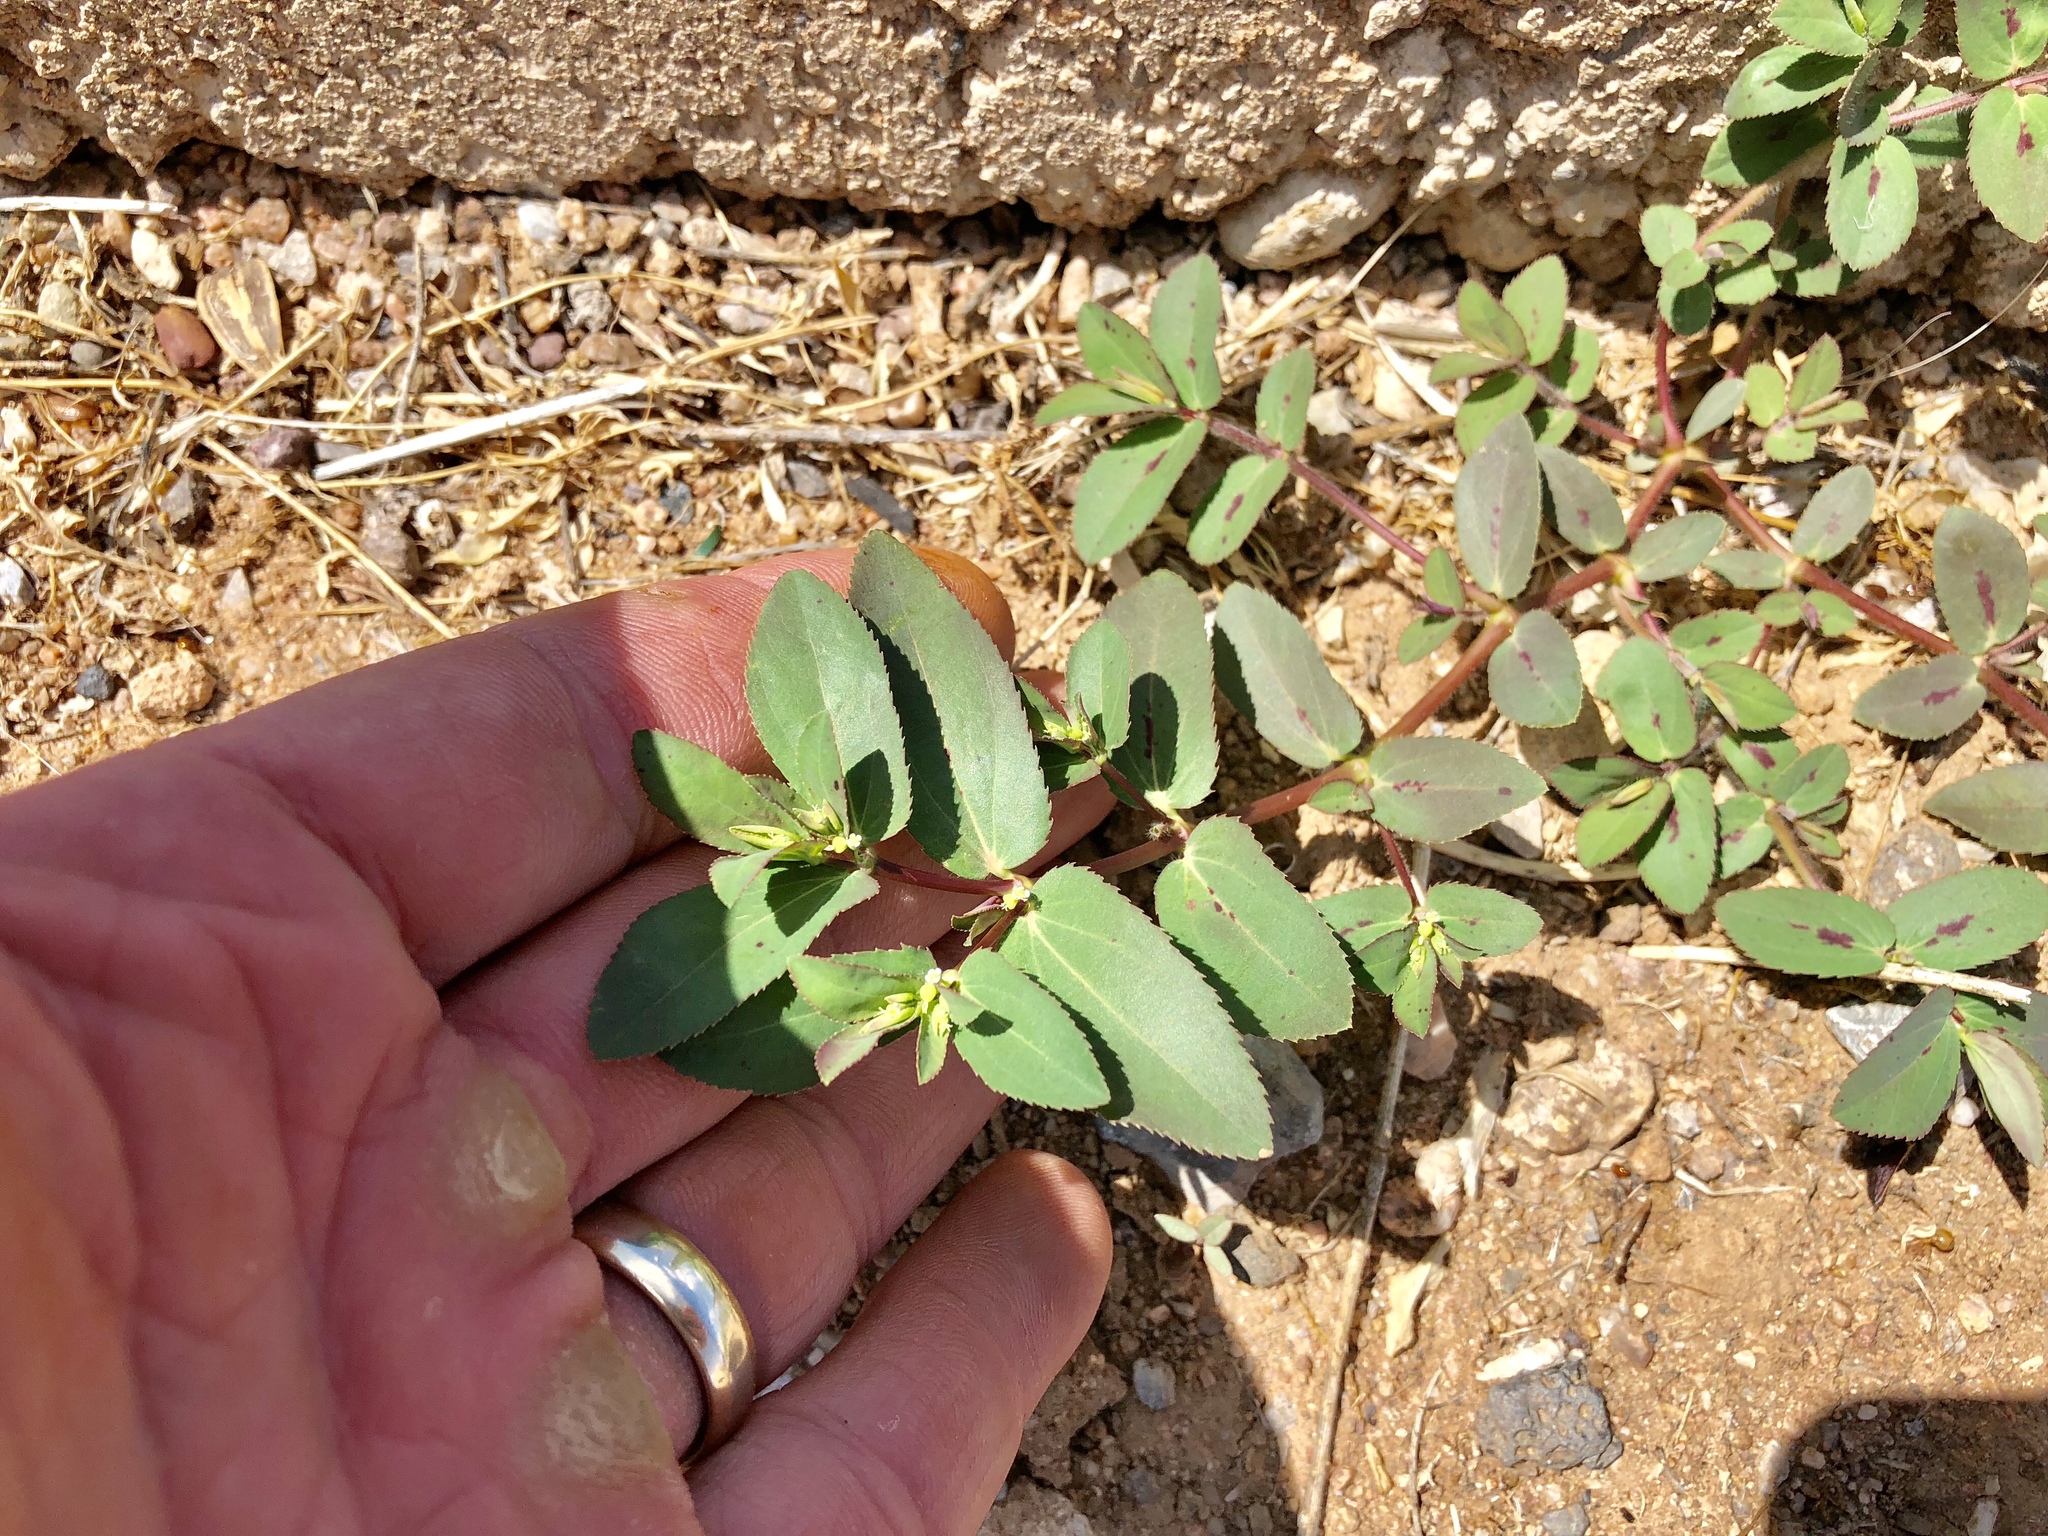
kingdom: Plantae
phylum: Tracheophyta
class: Magnoliopsida
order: Malpighiales
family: Euphorbiaceae
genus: Euphorbia
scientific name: Euphorbia hyssopifolia
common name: Hyssopleaf sandmat
